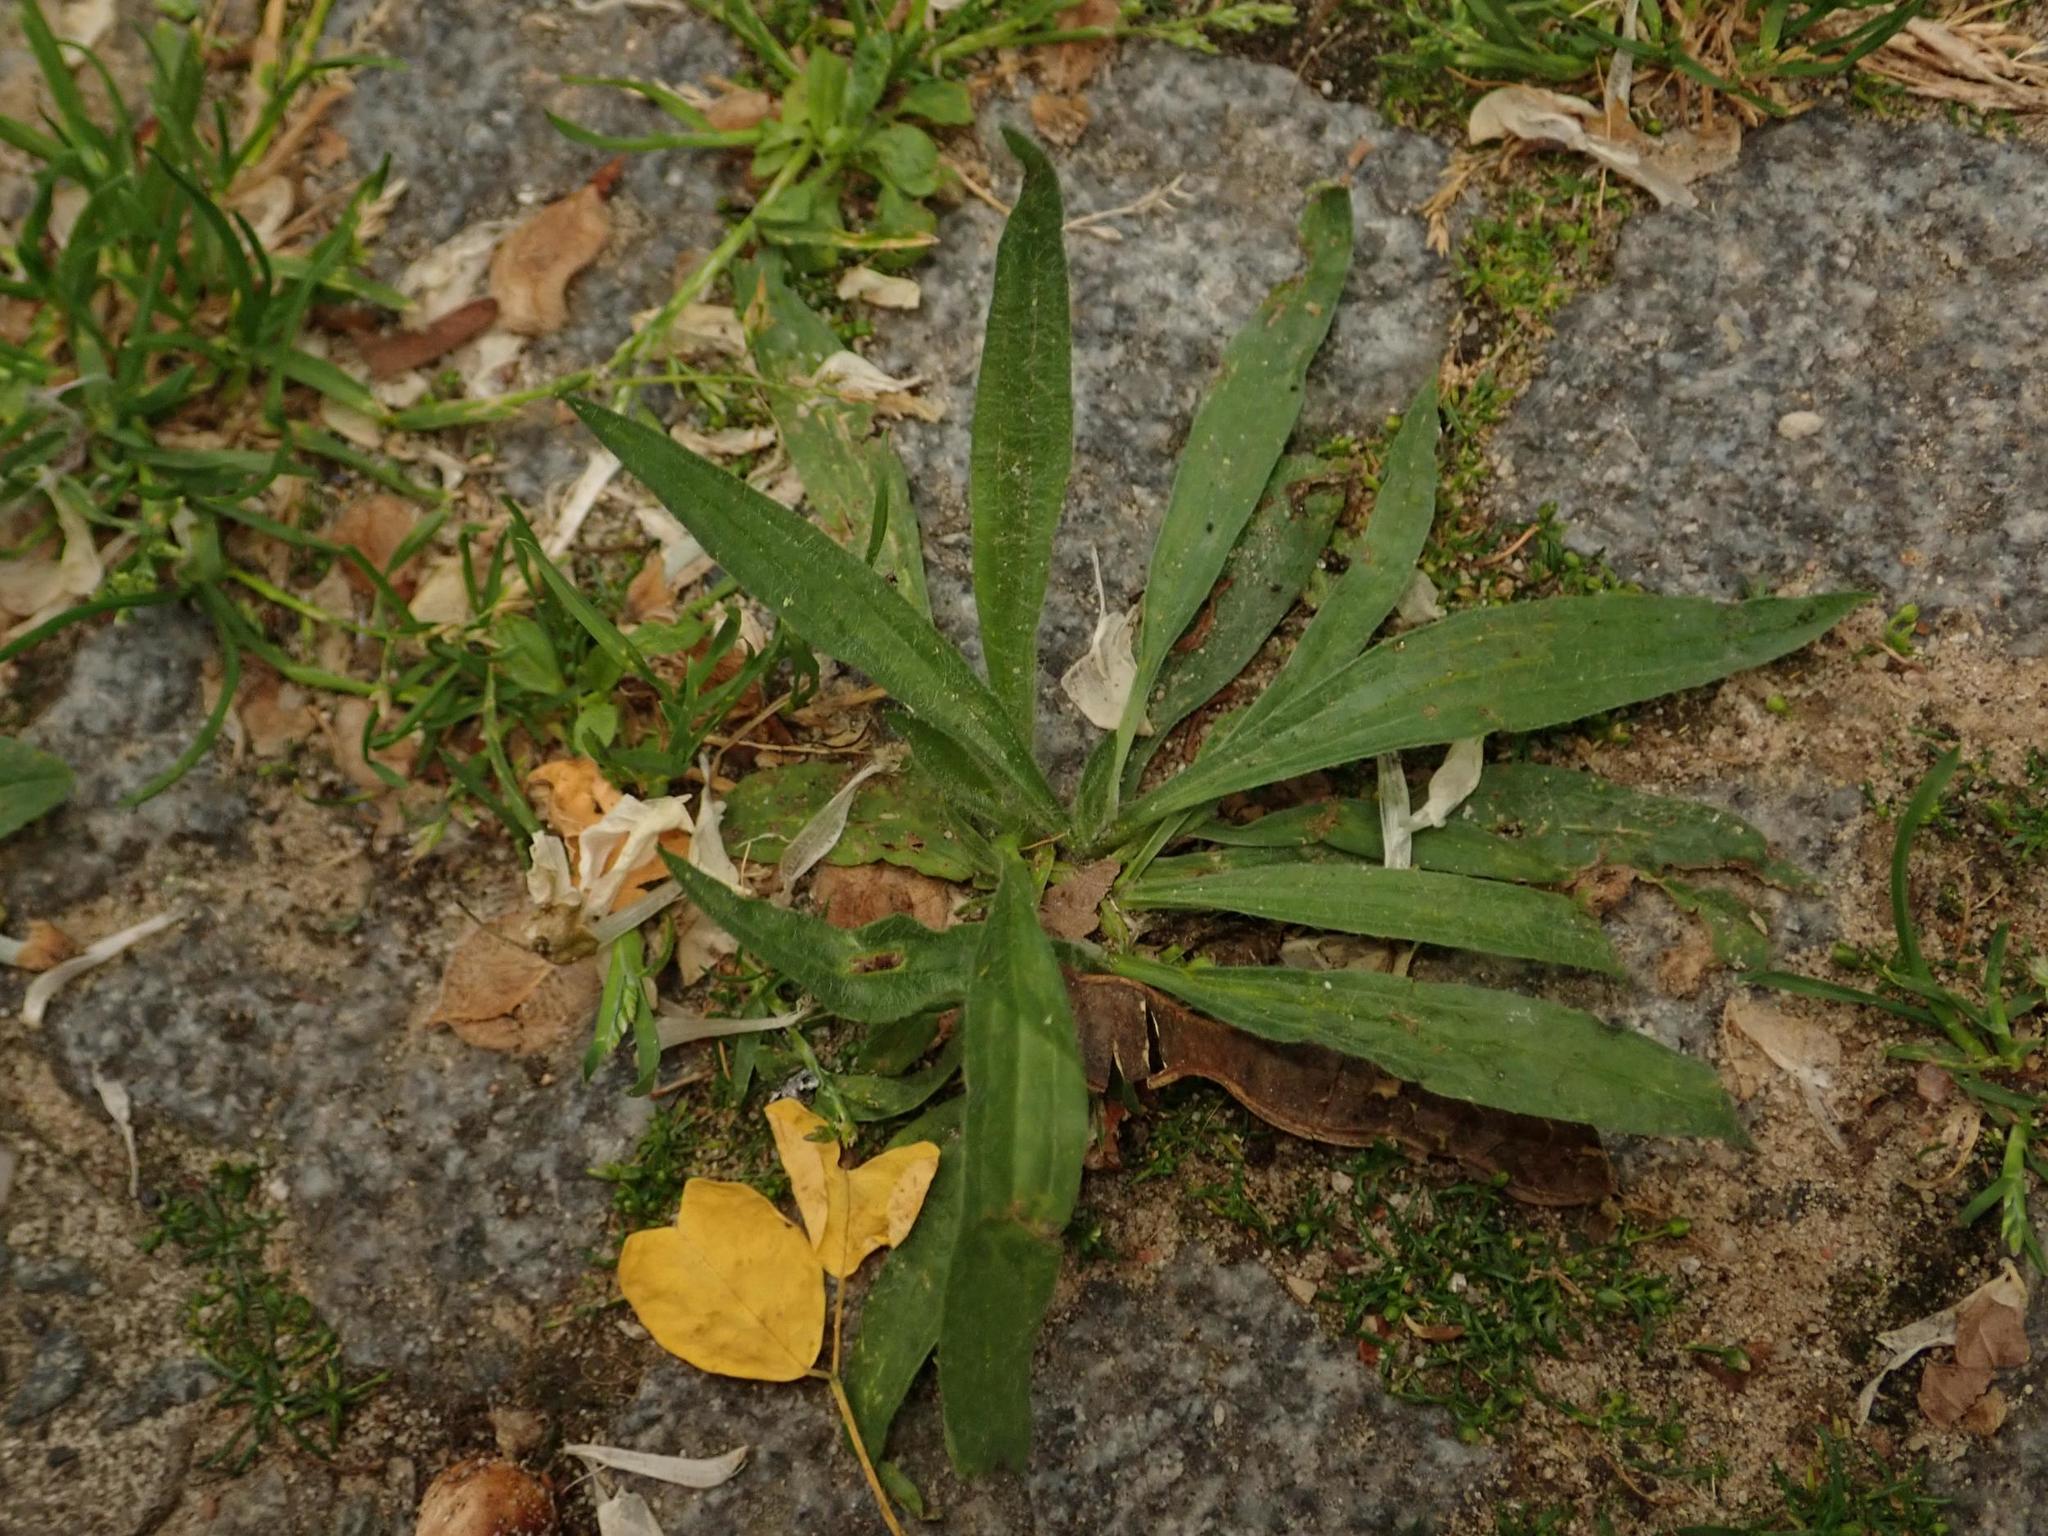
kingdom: Plantae
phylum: Tracheophyta
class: Magnoliopsida
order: Lamiales
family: Plantaginaceae
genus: Plantago
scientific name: Plantago lanceolata
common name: Ribwort plantain
